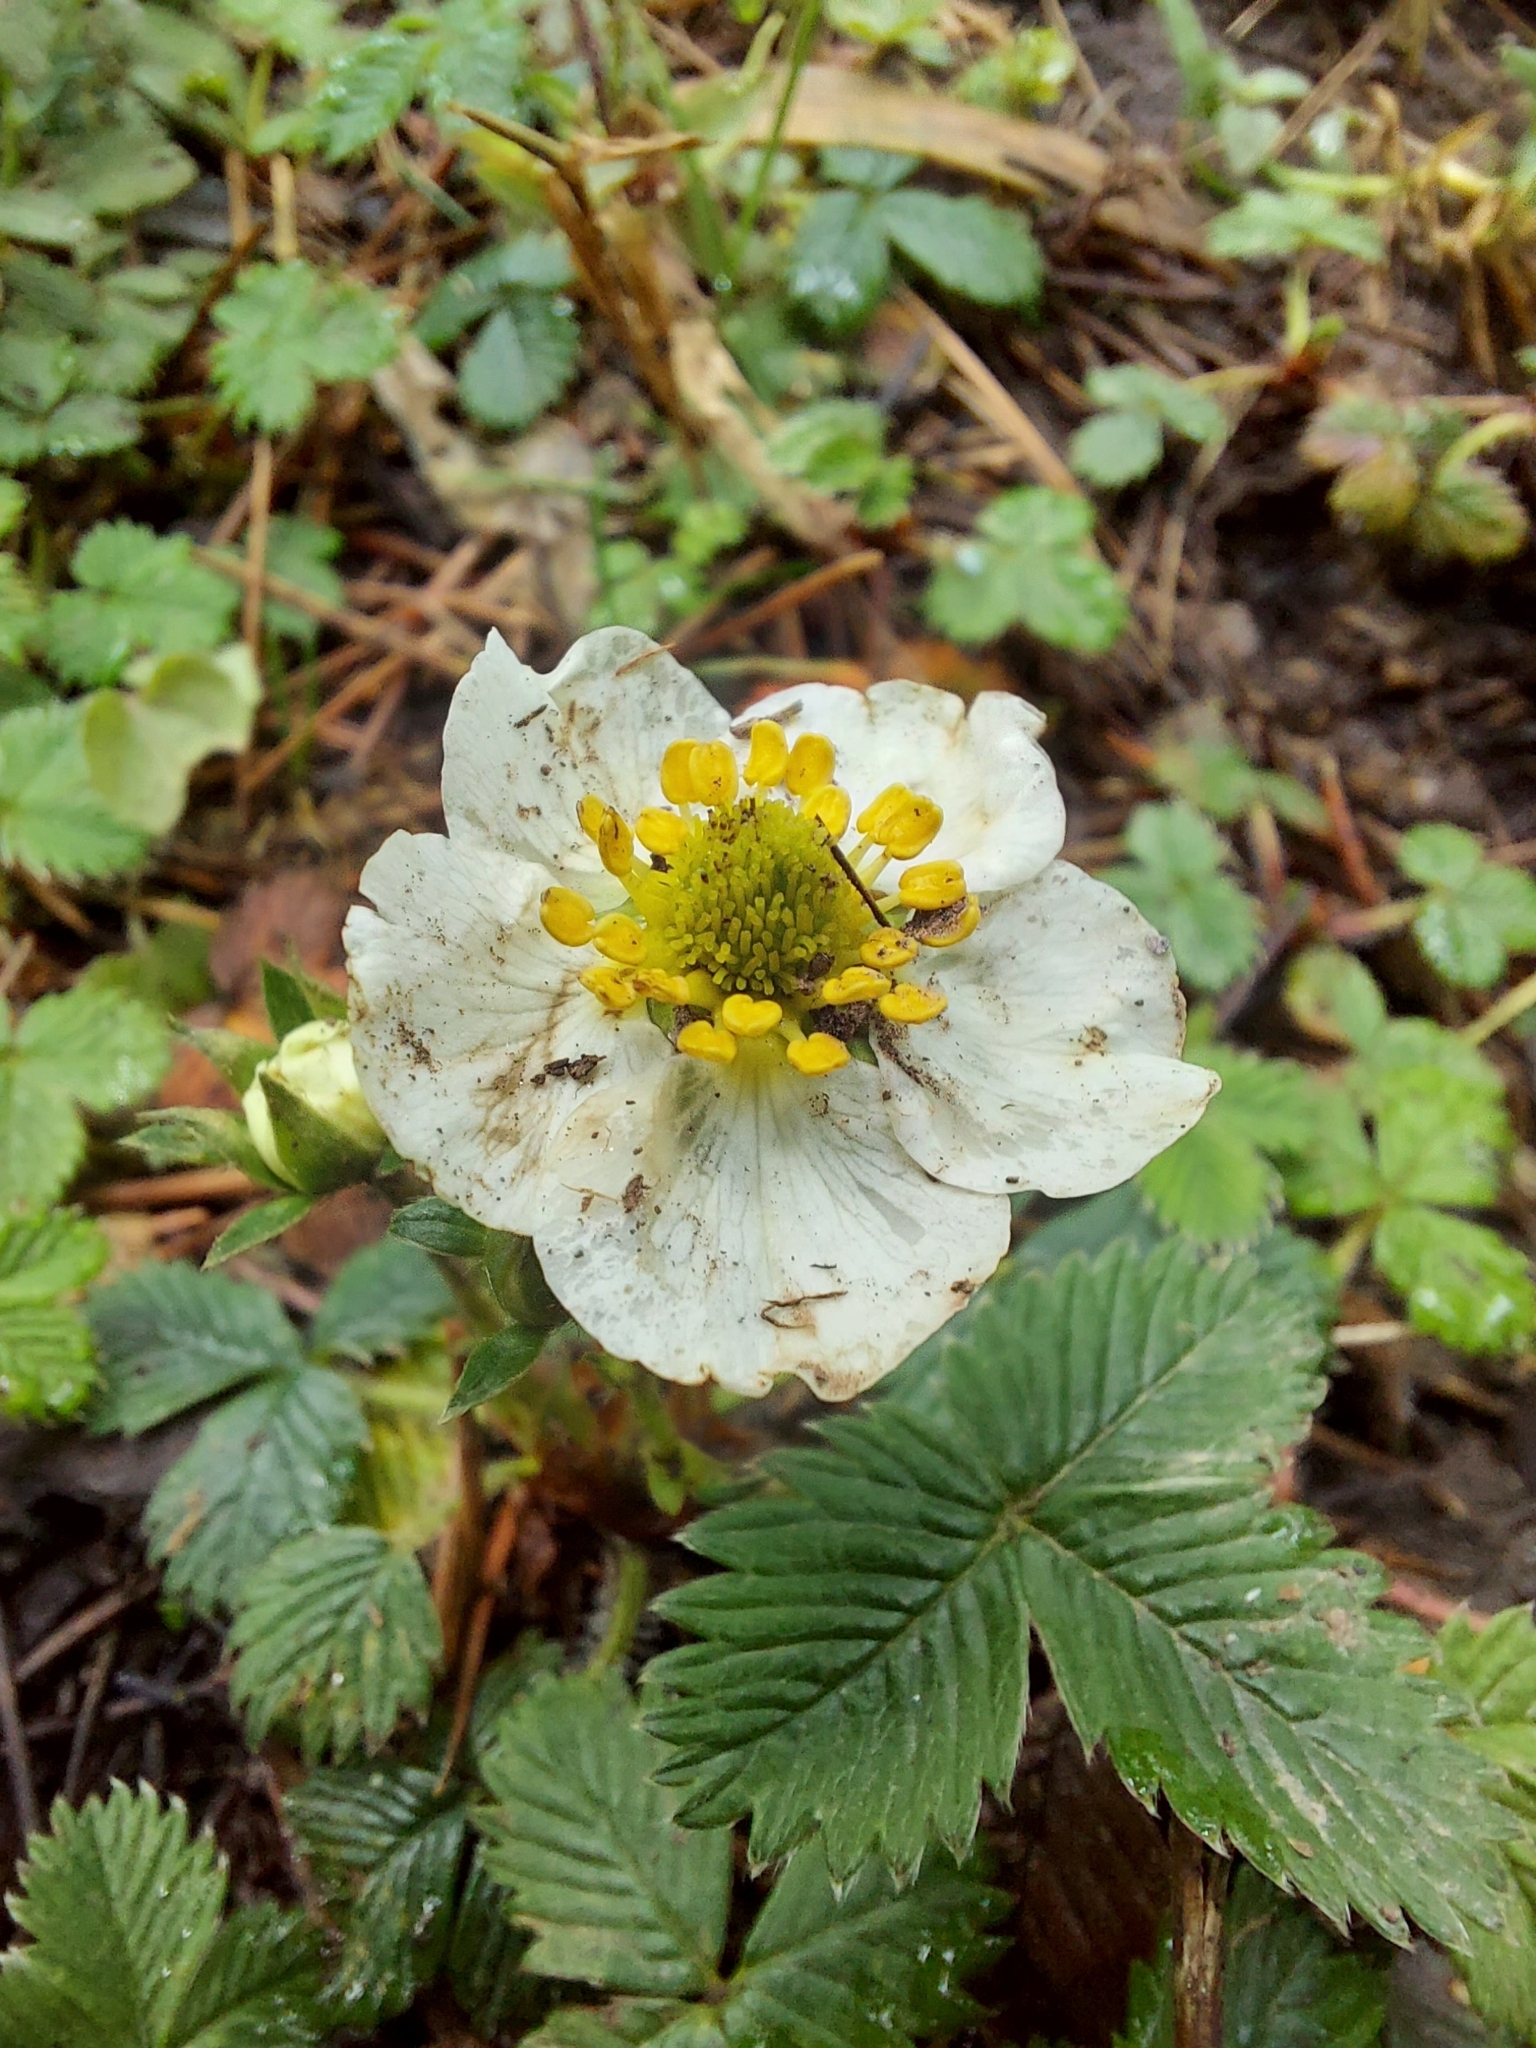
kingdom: Plantae
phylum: Tracheophyta
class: Magnoliopsida
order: Rosales
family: Rosaceae
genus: Fragaria
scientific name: Fragaria nubicola
